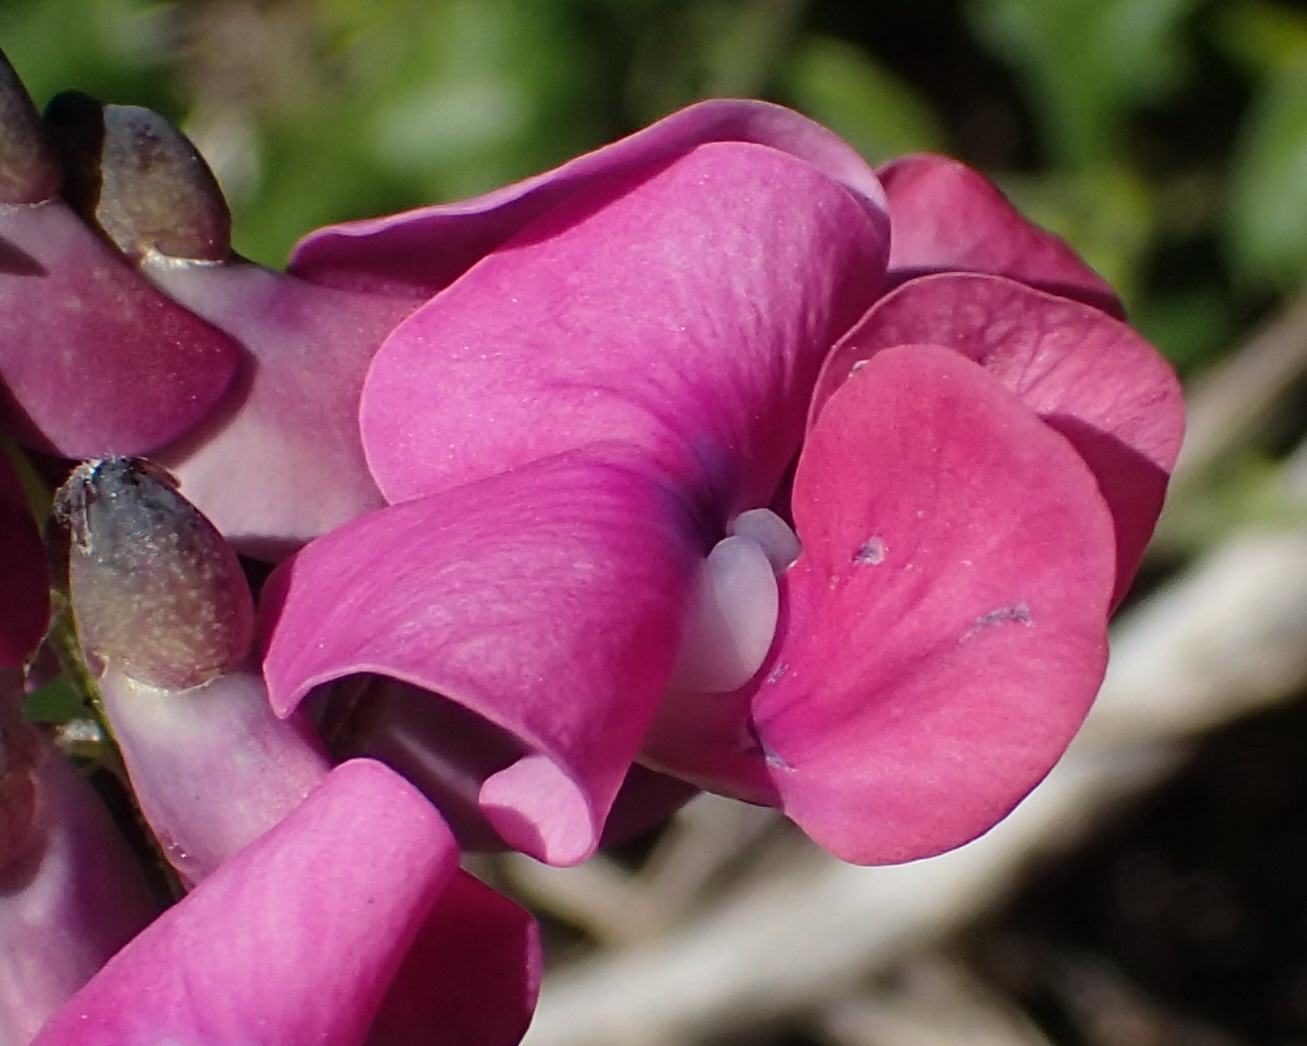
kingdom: Plantae
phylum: Tracheophyta
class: Magnoliopsida
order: Fabales
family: Fabaceae
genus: Dipogon
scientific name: Dipogon lignosus
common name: Okie bean
